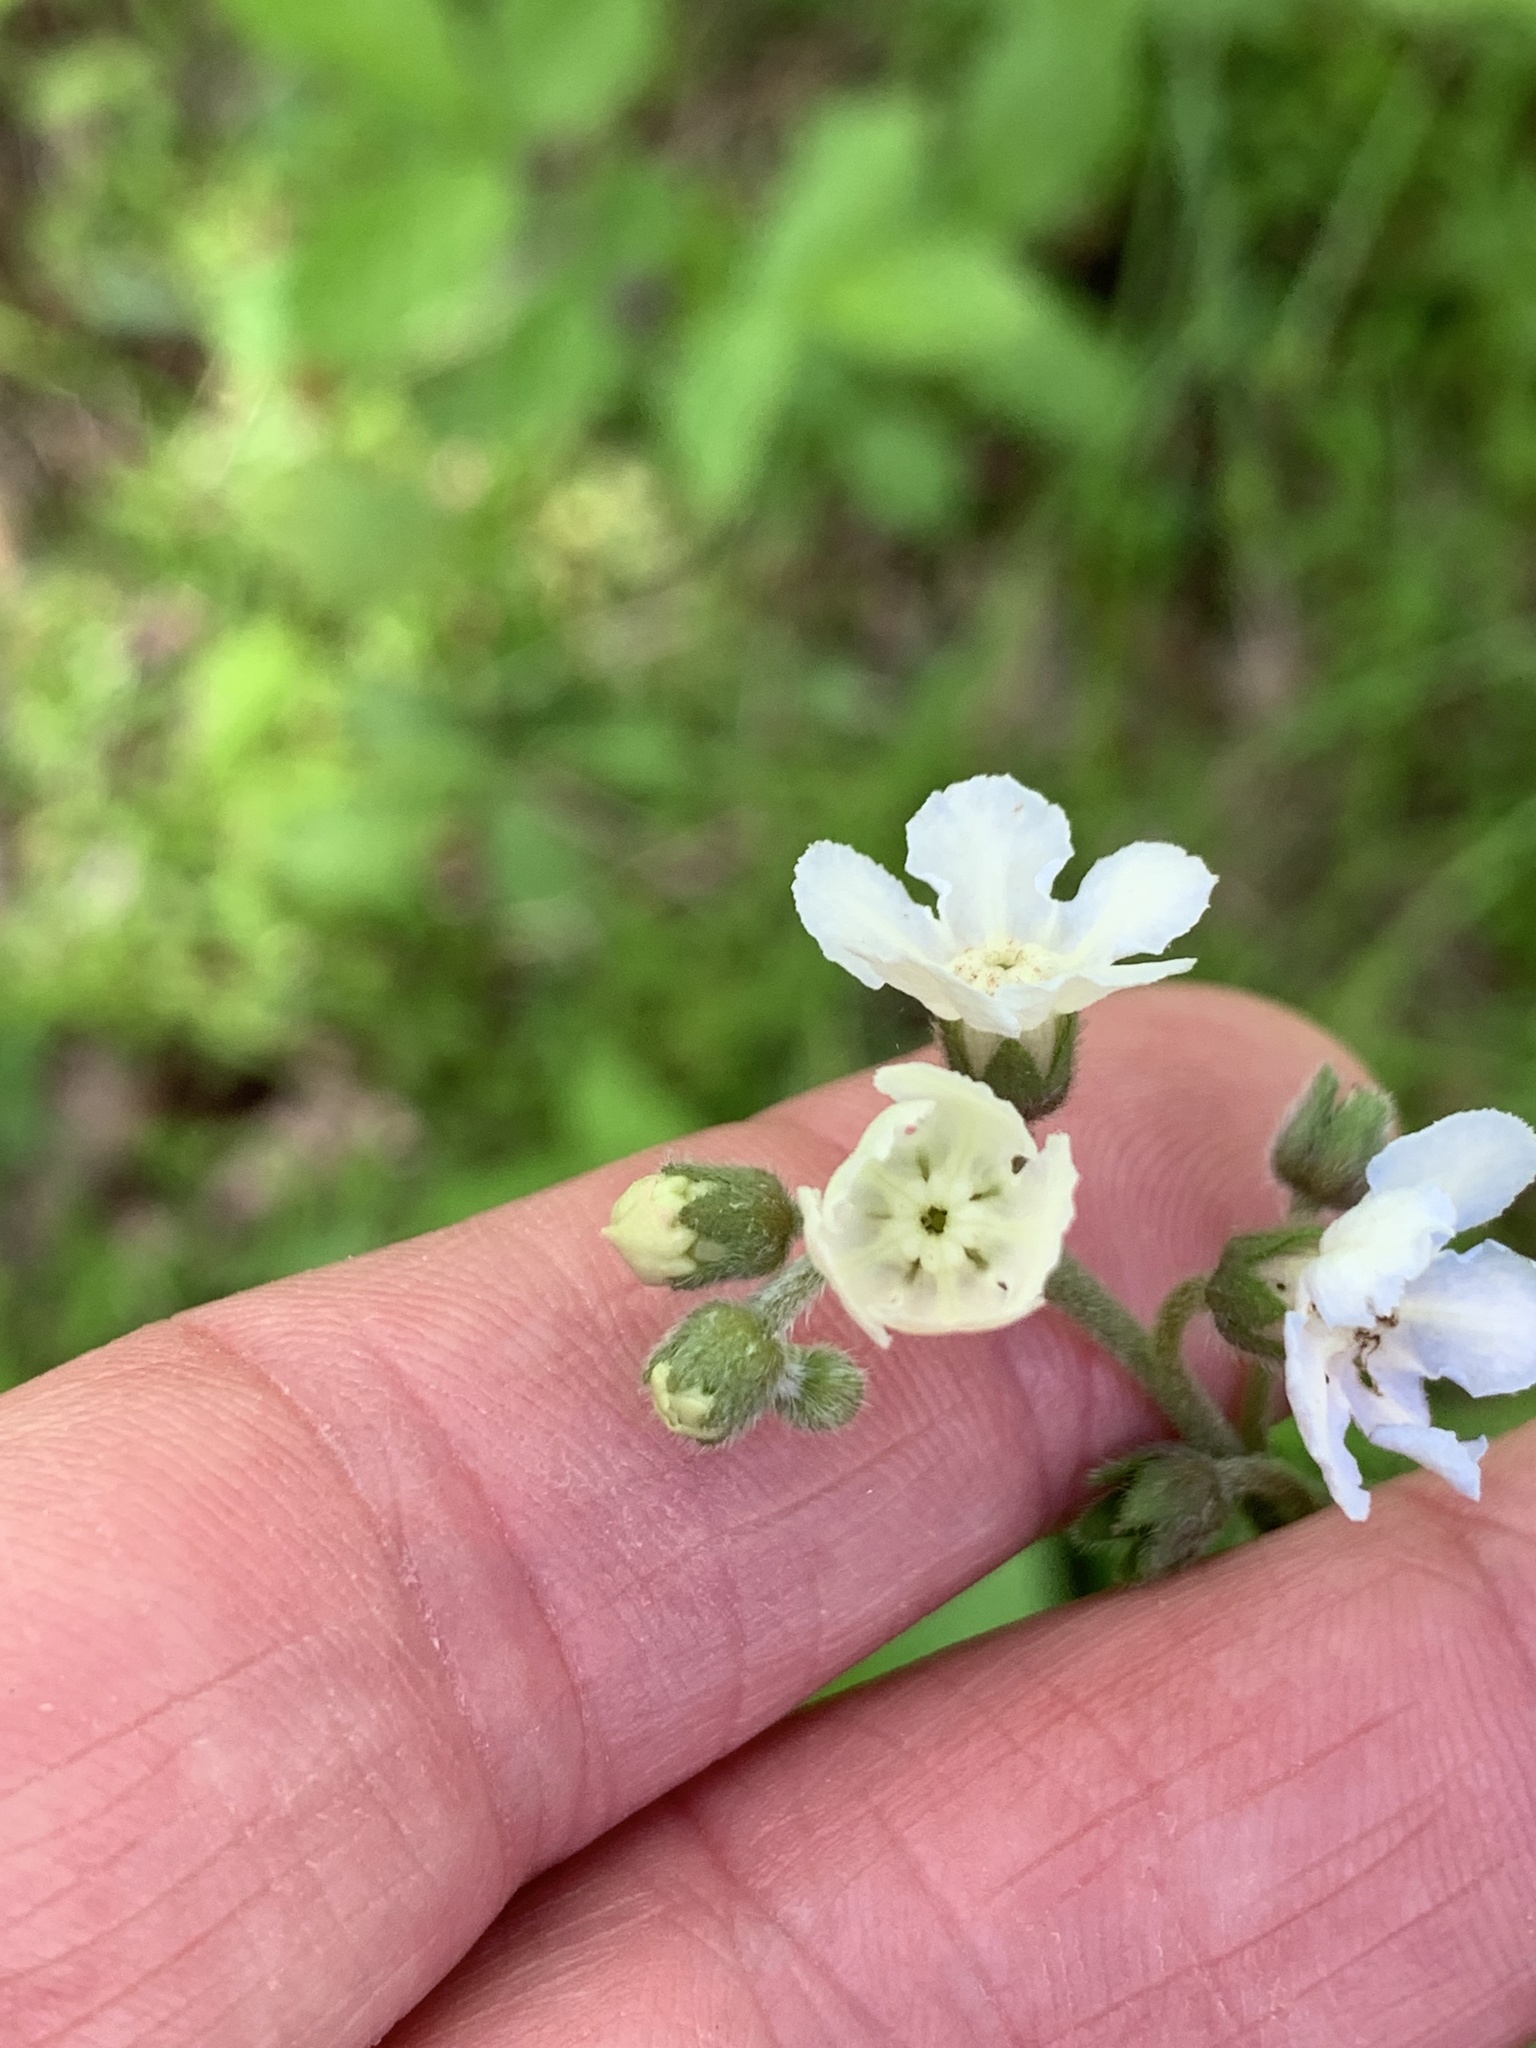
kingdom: Plantae
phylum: Tracheophyta
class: Magnoliopsida
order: Boraginales
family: Boraginaceae
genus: Andersonglossum
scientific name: Andersonglossum virginianum
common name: Wild comfrey
